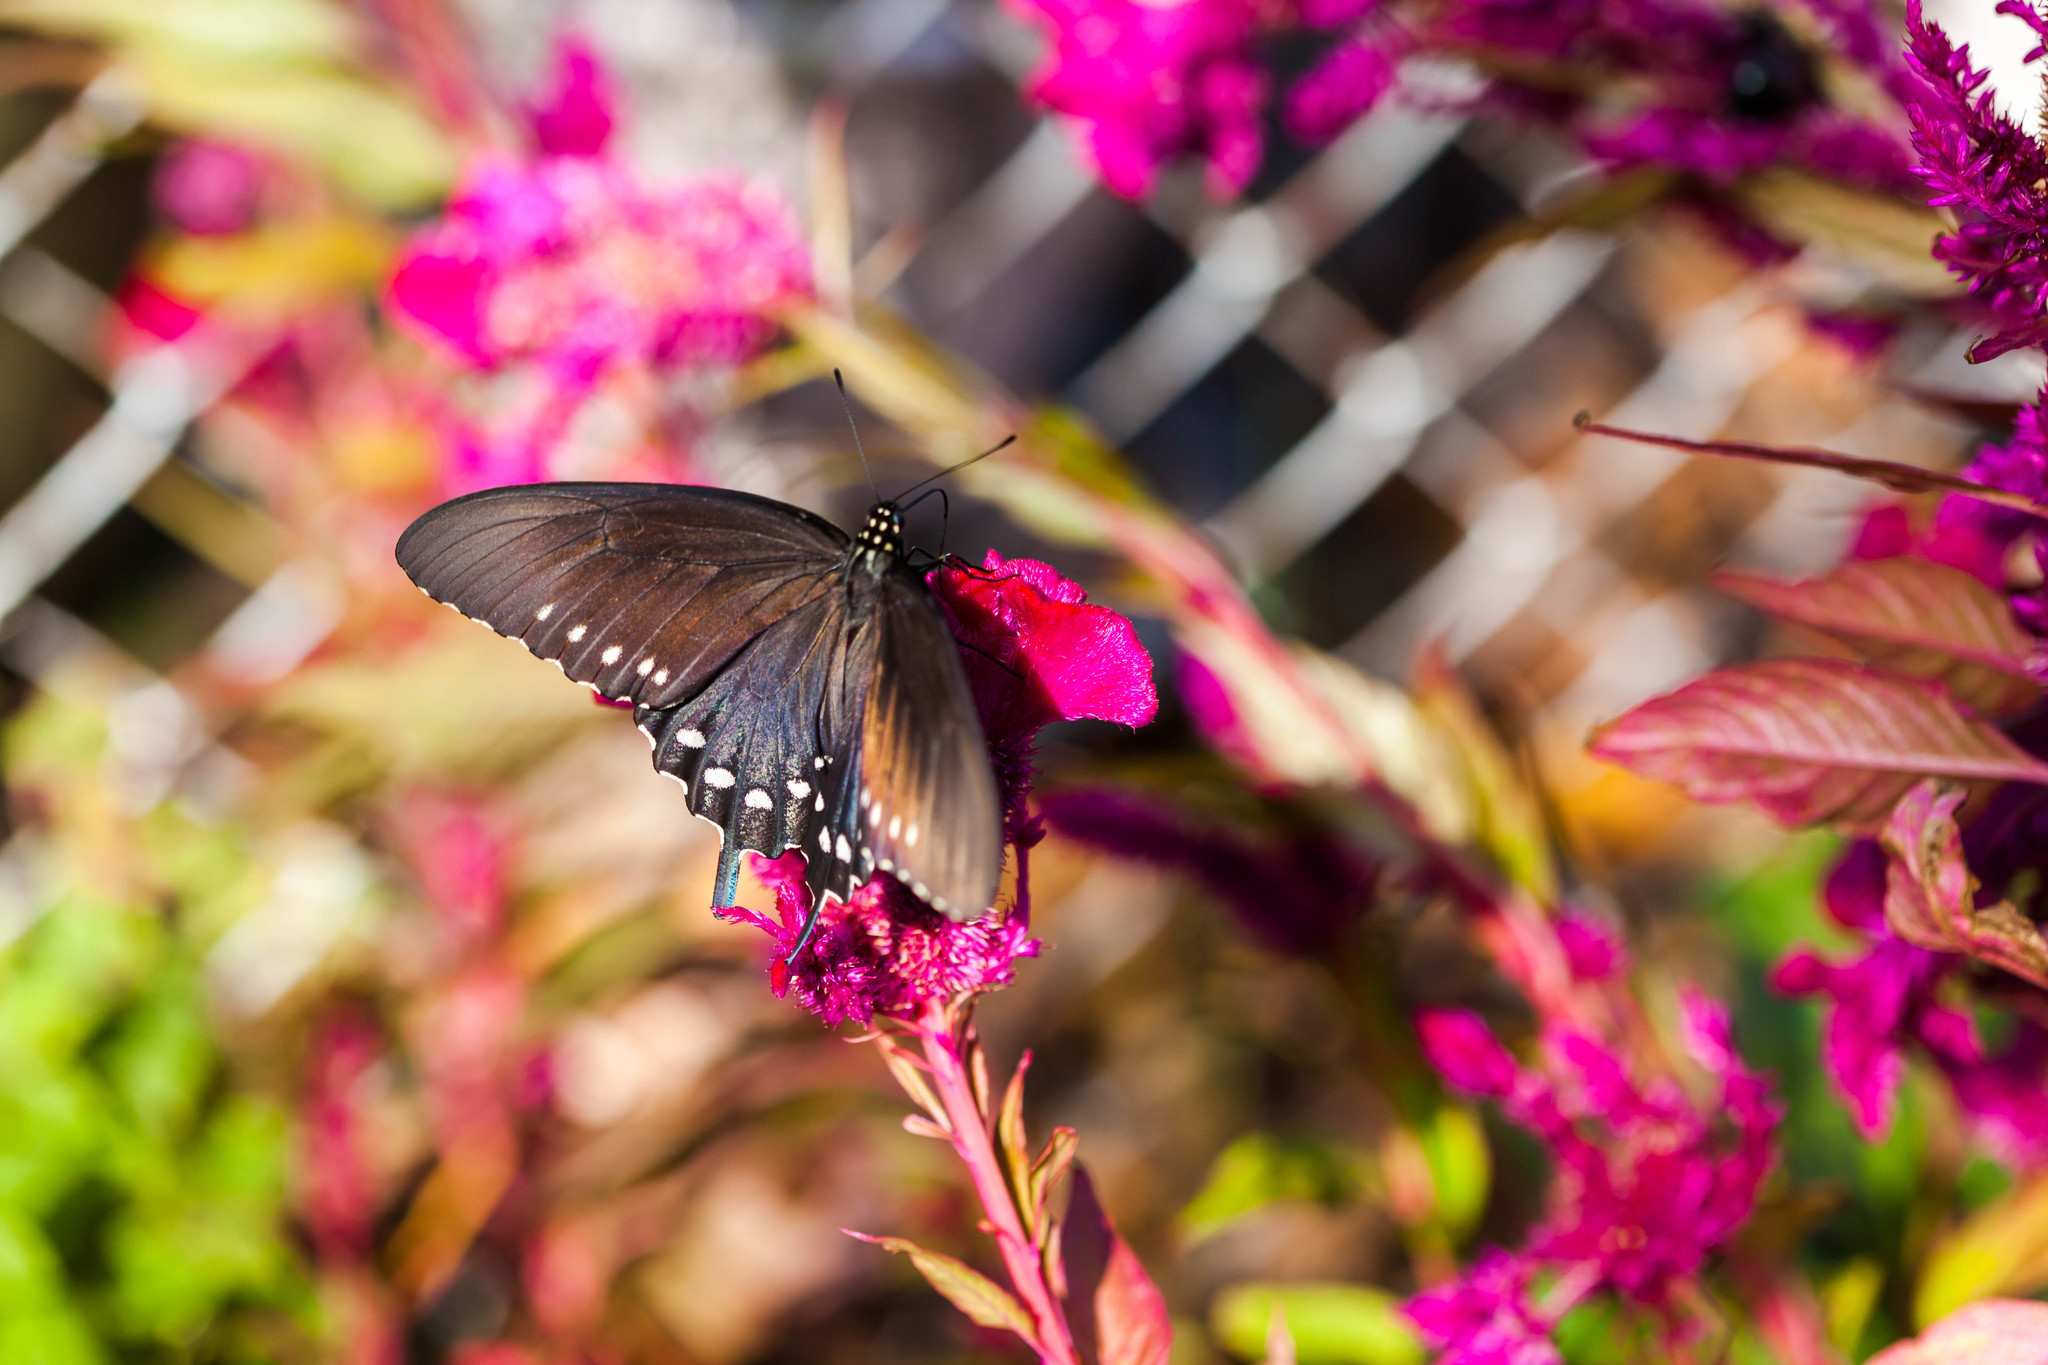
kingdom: Animalia
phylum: Arthropoda
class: Insecta
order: Lepidoptera
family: Papilionidae
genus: Battus
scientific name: Battus philenor
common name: Pipevine swallowtail
